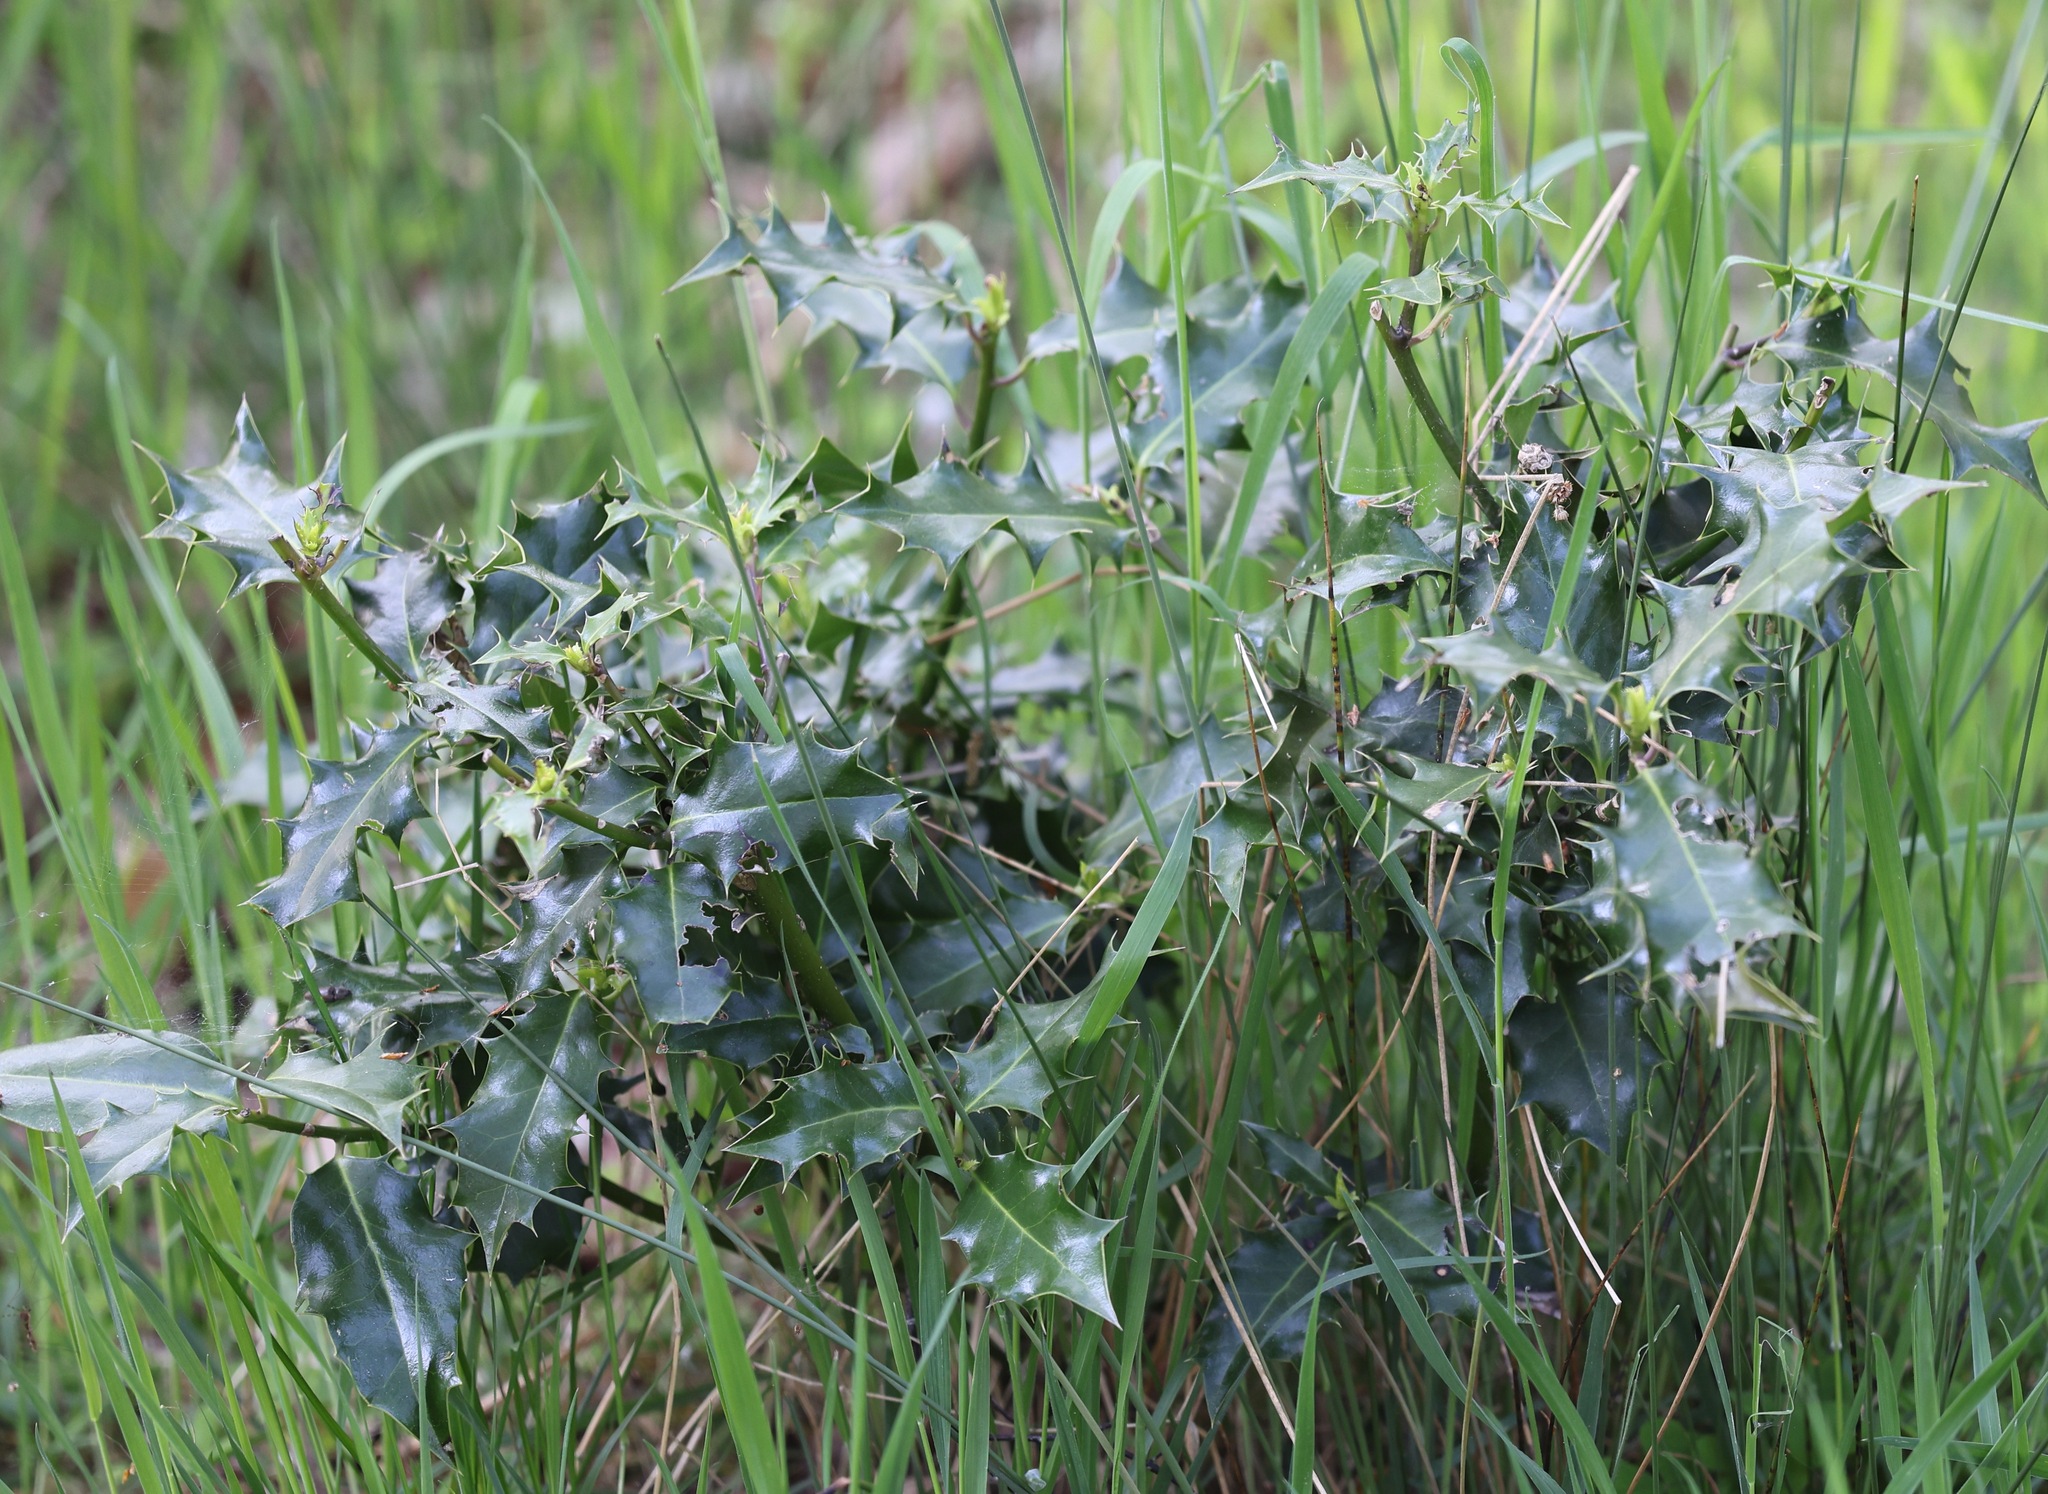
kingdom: Plantae
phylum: Tracheophyta
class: Magnoliopsida
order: Aquifoliales
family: Aquifoliaceae
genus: Ilex
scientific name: Ilex aquifolium
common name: English holly
